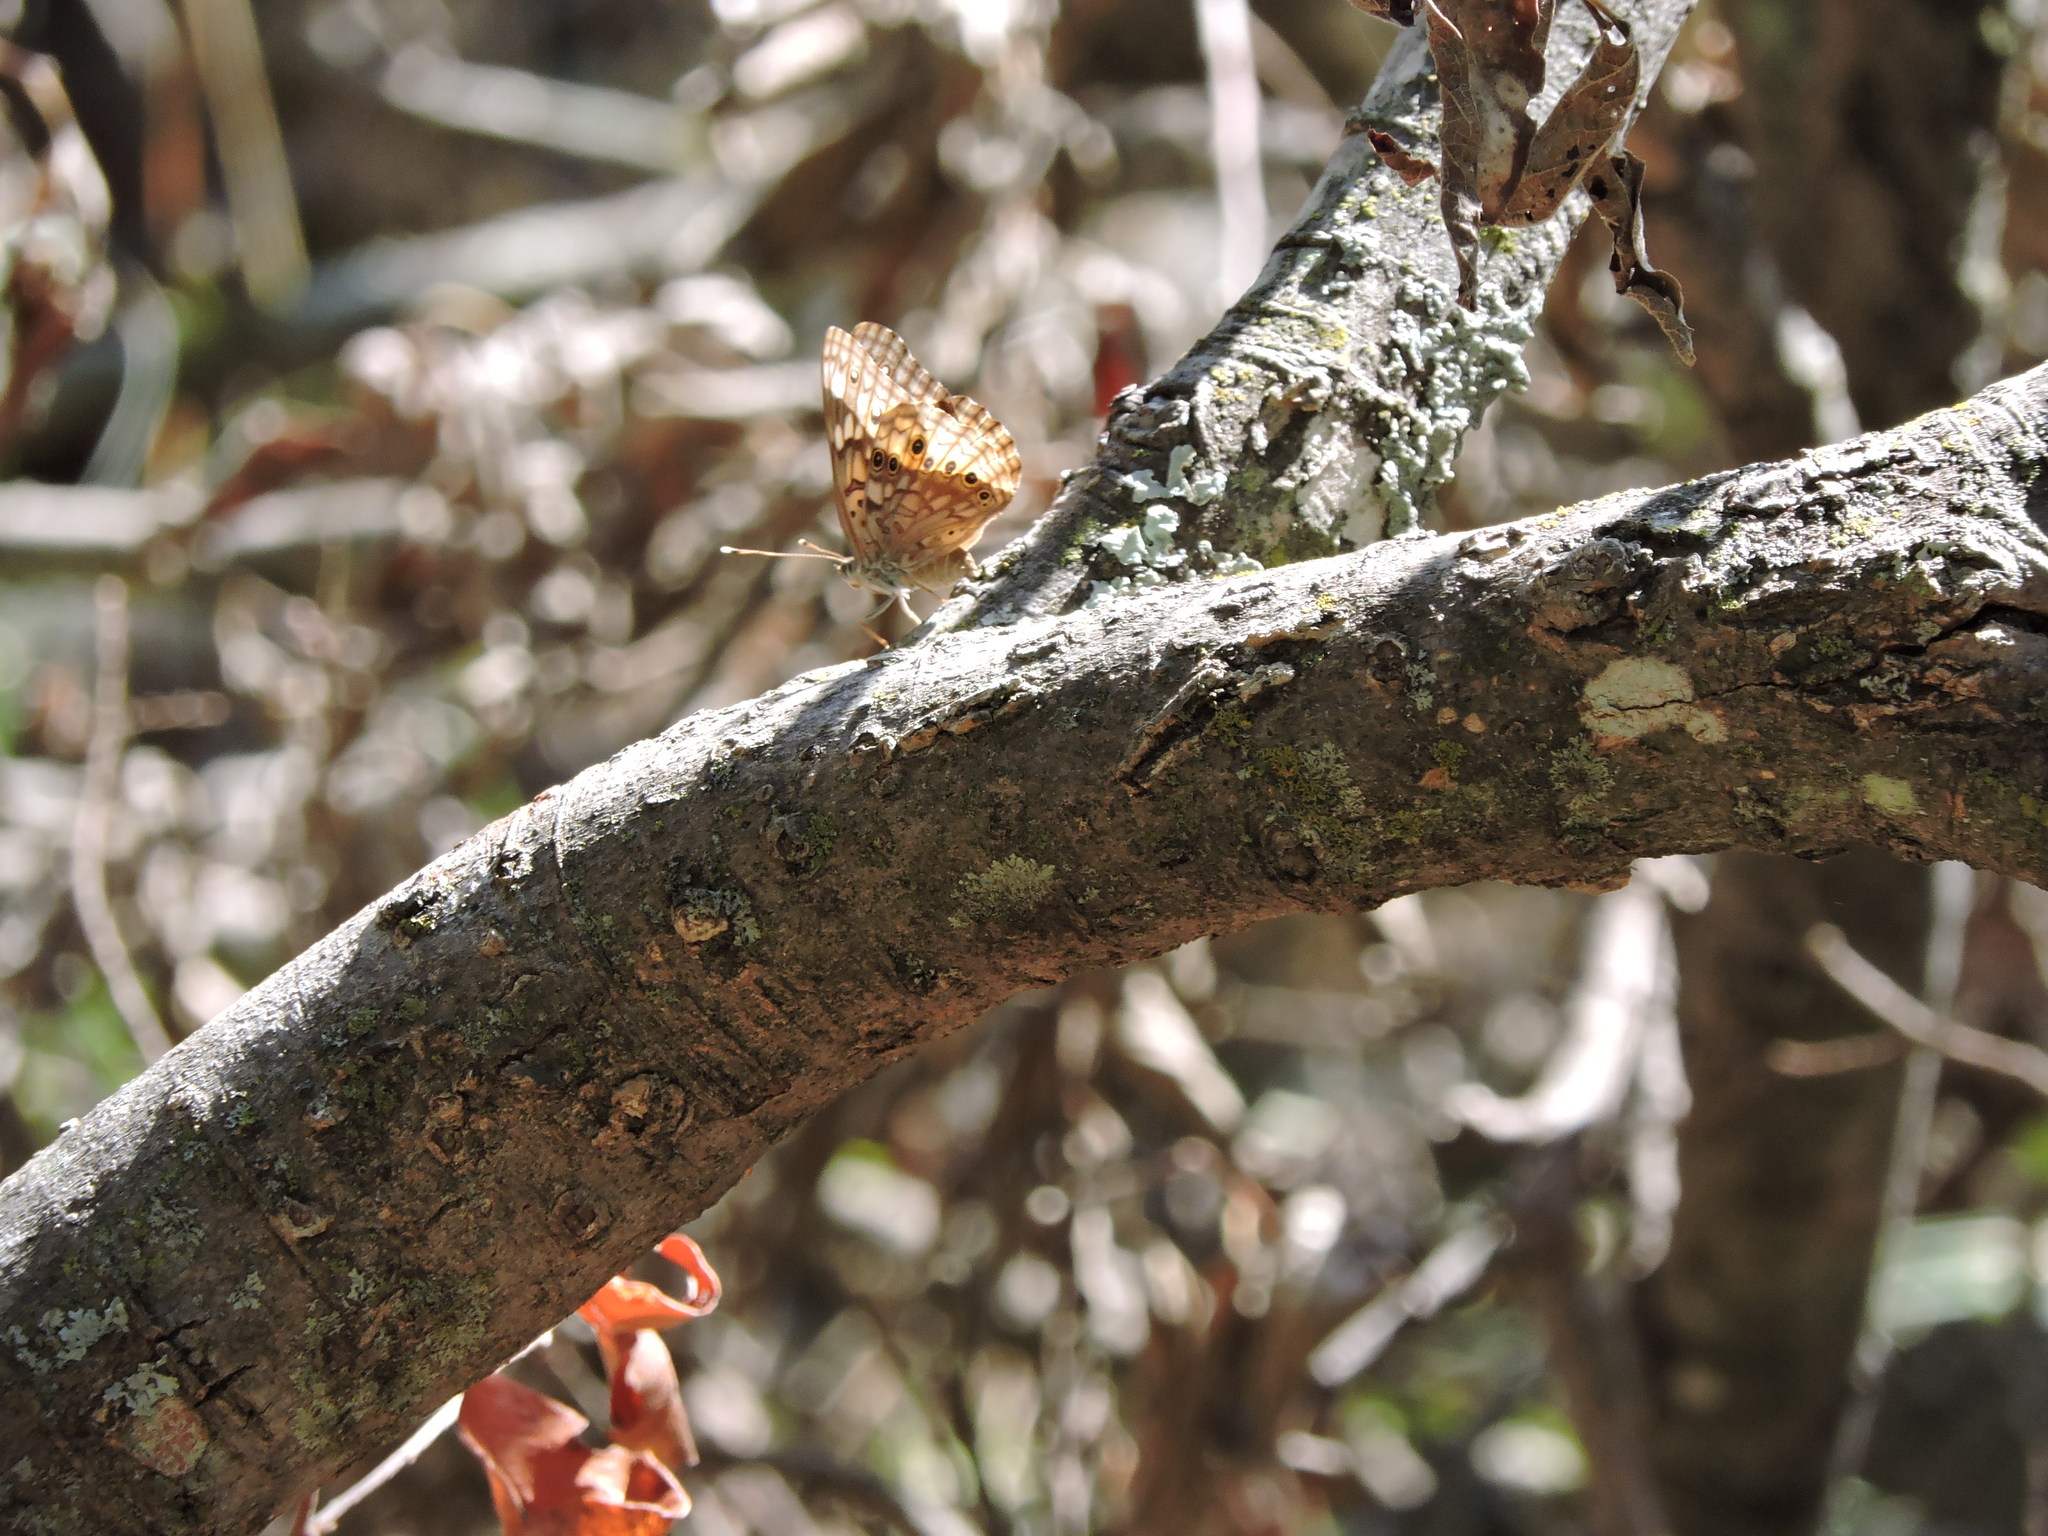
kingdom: Animalia
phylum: Arthropoda
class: Insecta
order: Lepidoptera
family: Nymphalidae
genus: Asterocampa
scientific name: Asterocampa celtis
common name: Hackberry emperor
